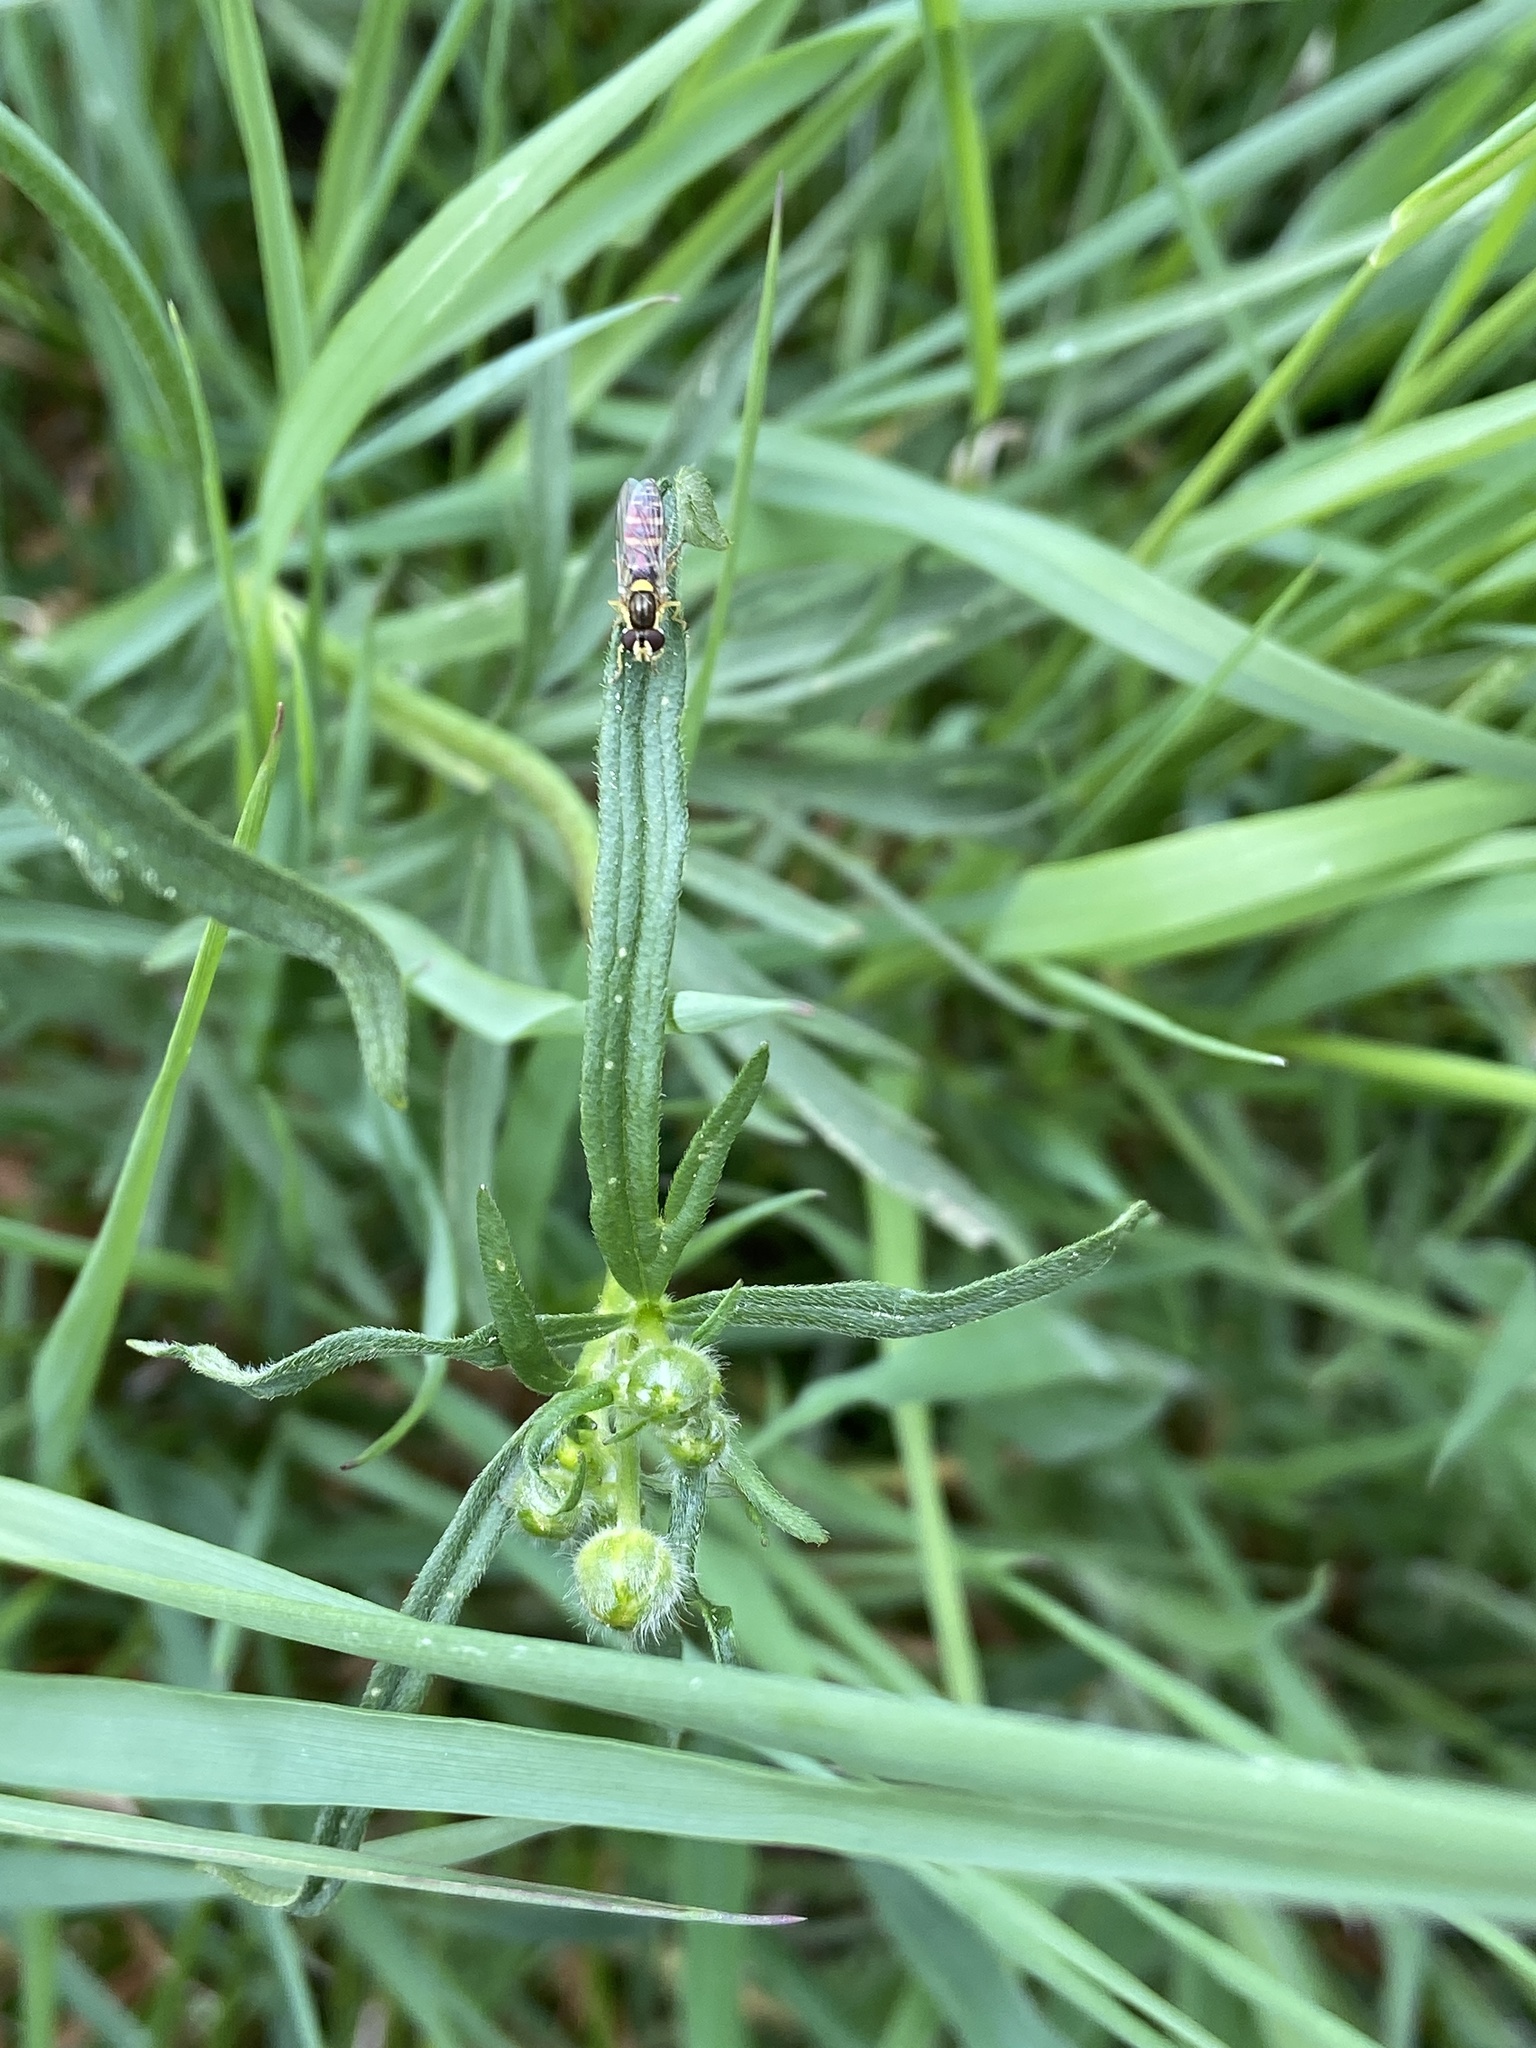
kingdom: Animalia
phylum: Arthropoda
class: Insecta
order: Diptera
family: Syrphidae
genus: Sphaerophoria
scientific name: Sphaerophoria
